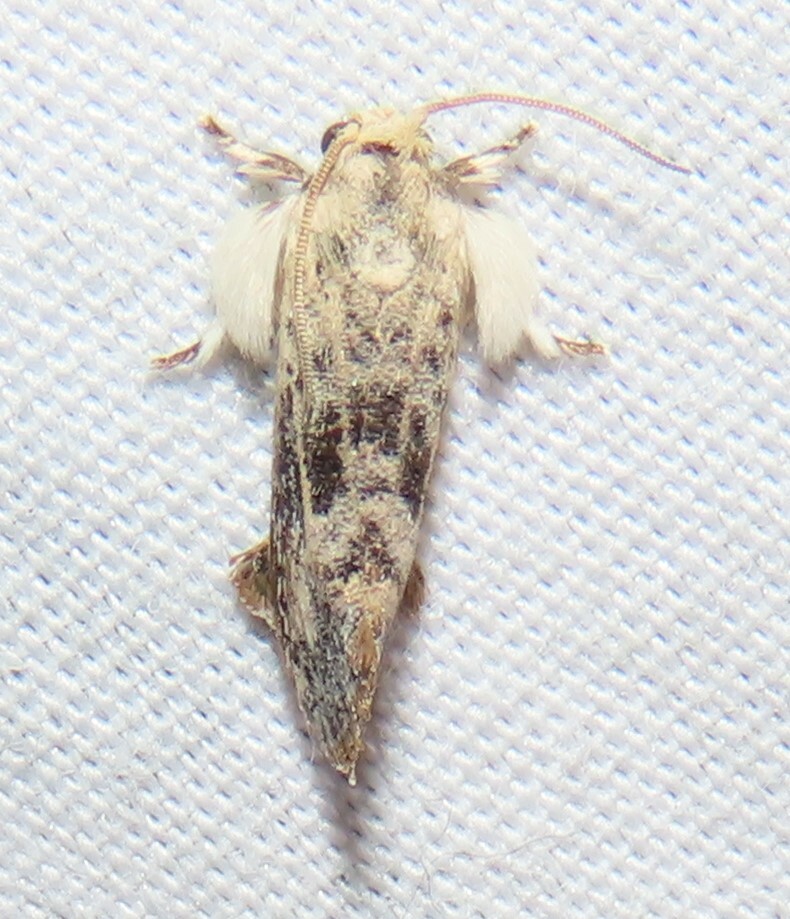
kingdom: Animalia
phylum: Arthropoda
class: Insecta
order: Lepidoptera
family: Tineidae
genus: Acrolophus
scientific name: Acrolophus mycetophagus
